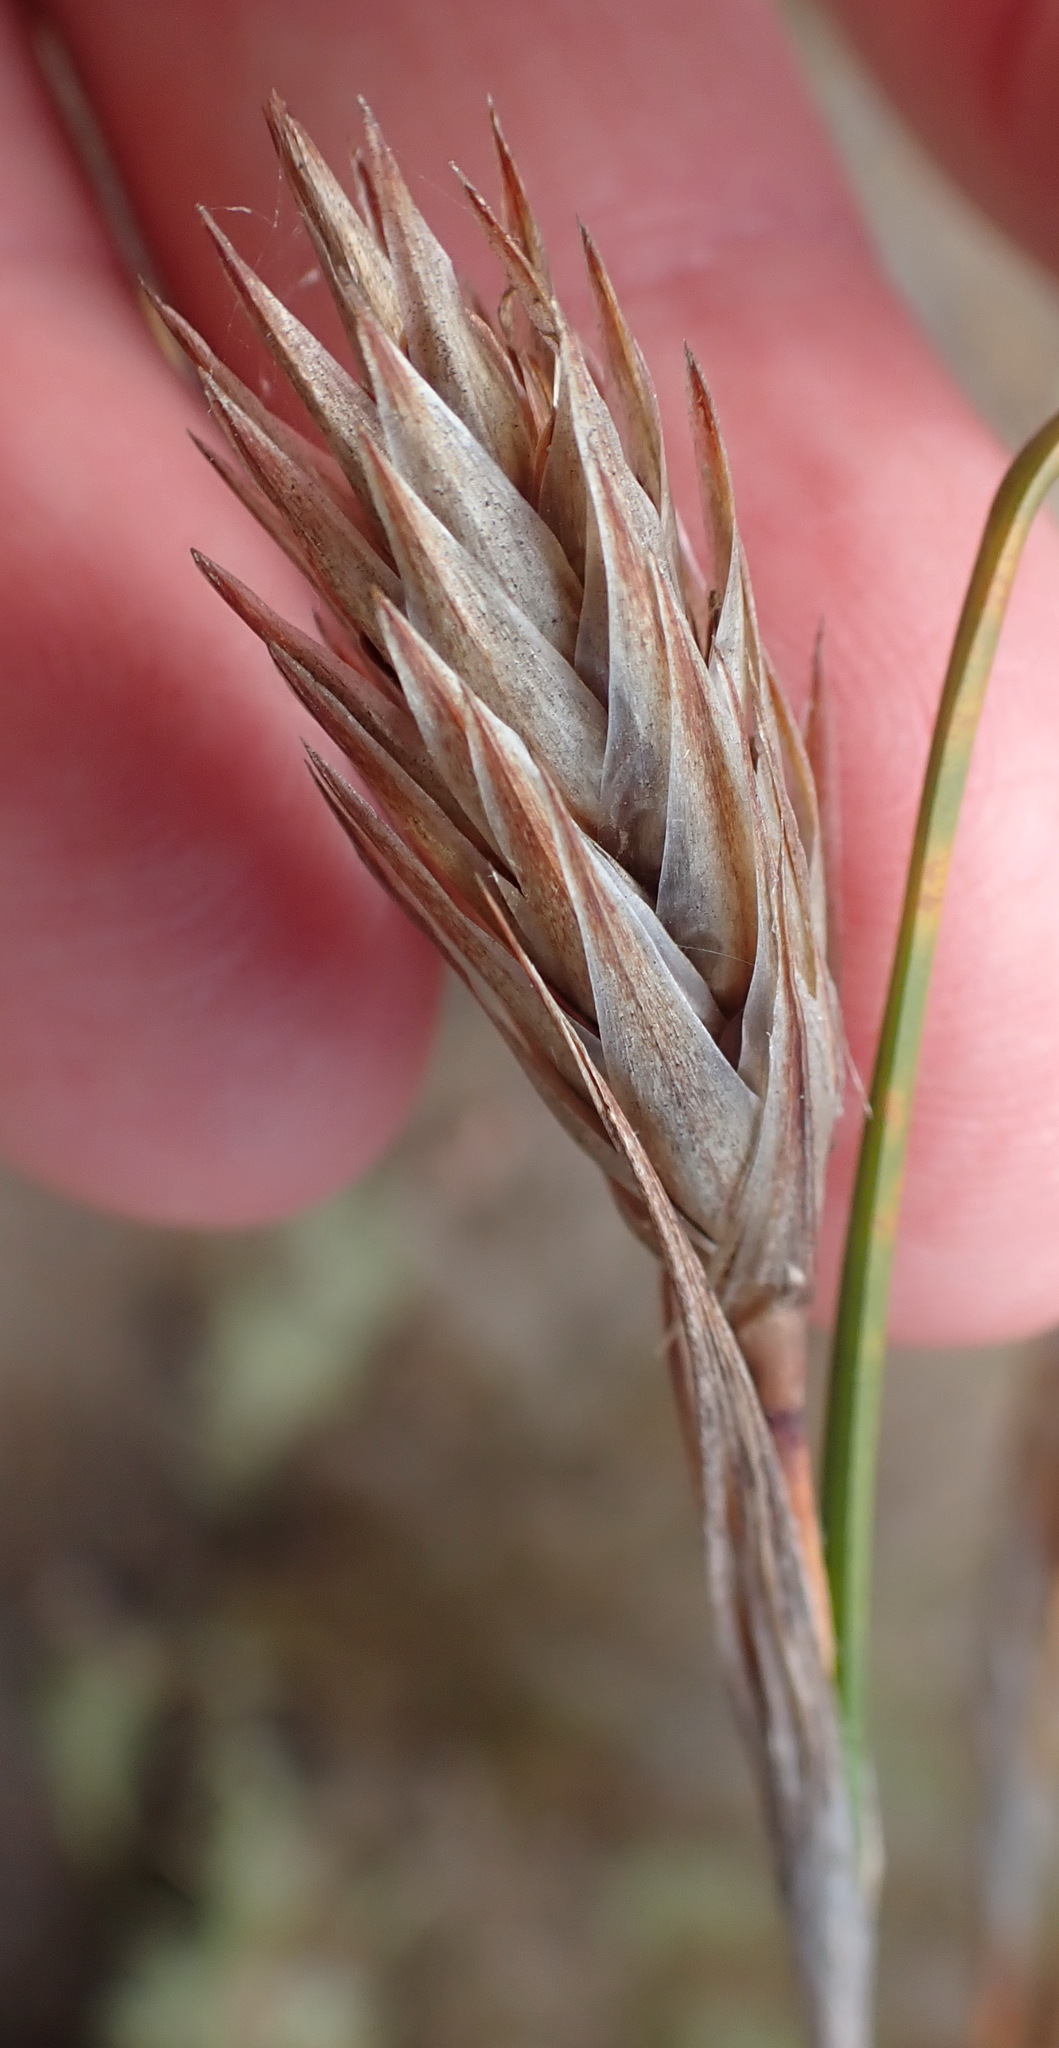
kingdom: Plantae
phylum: Tracheophyta
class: Liliopsida
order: Poales
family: Restionaceae
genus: Thamnochortus
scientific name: Thamnochortus glaber
